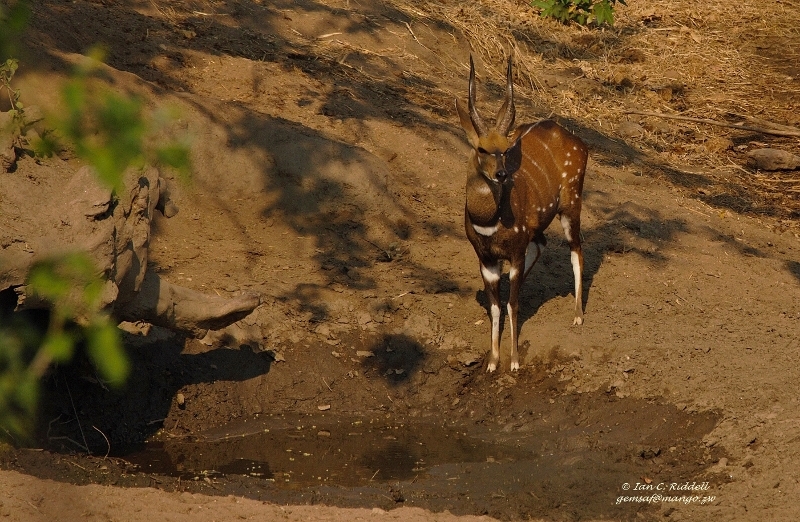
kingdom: Animalia
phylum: Chordata
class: Mammalia
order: Artiodactyla
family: Bovidae
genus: Tragelaphus
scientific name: Tragelaphus scriptus
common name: Bushbuck
